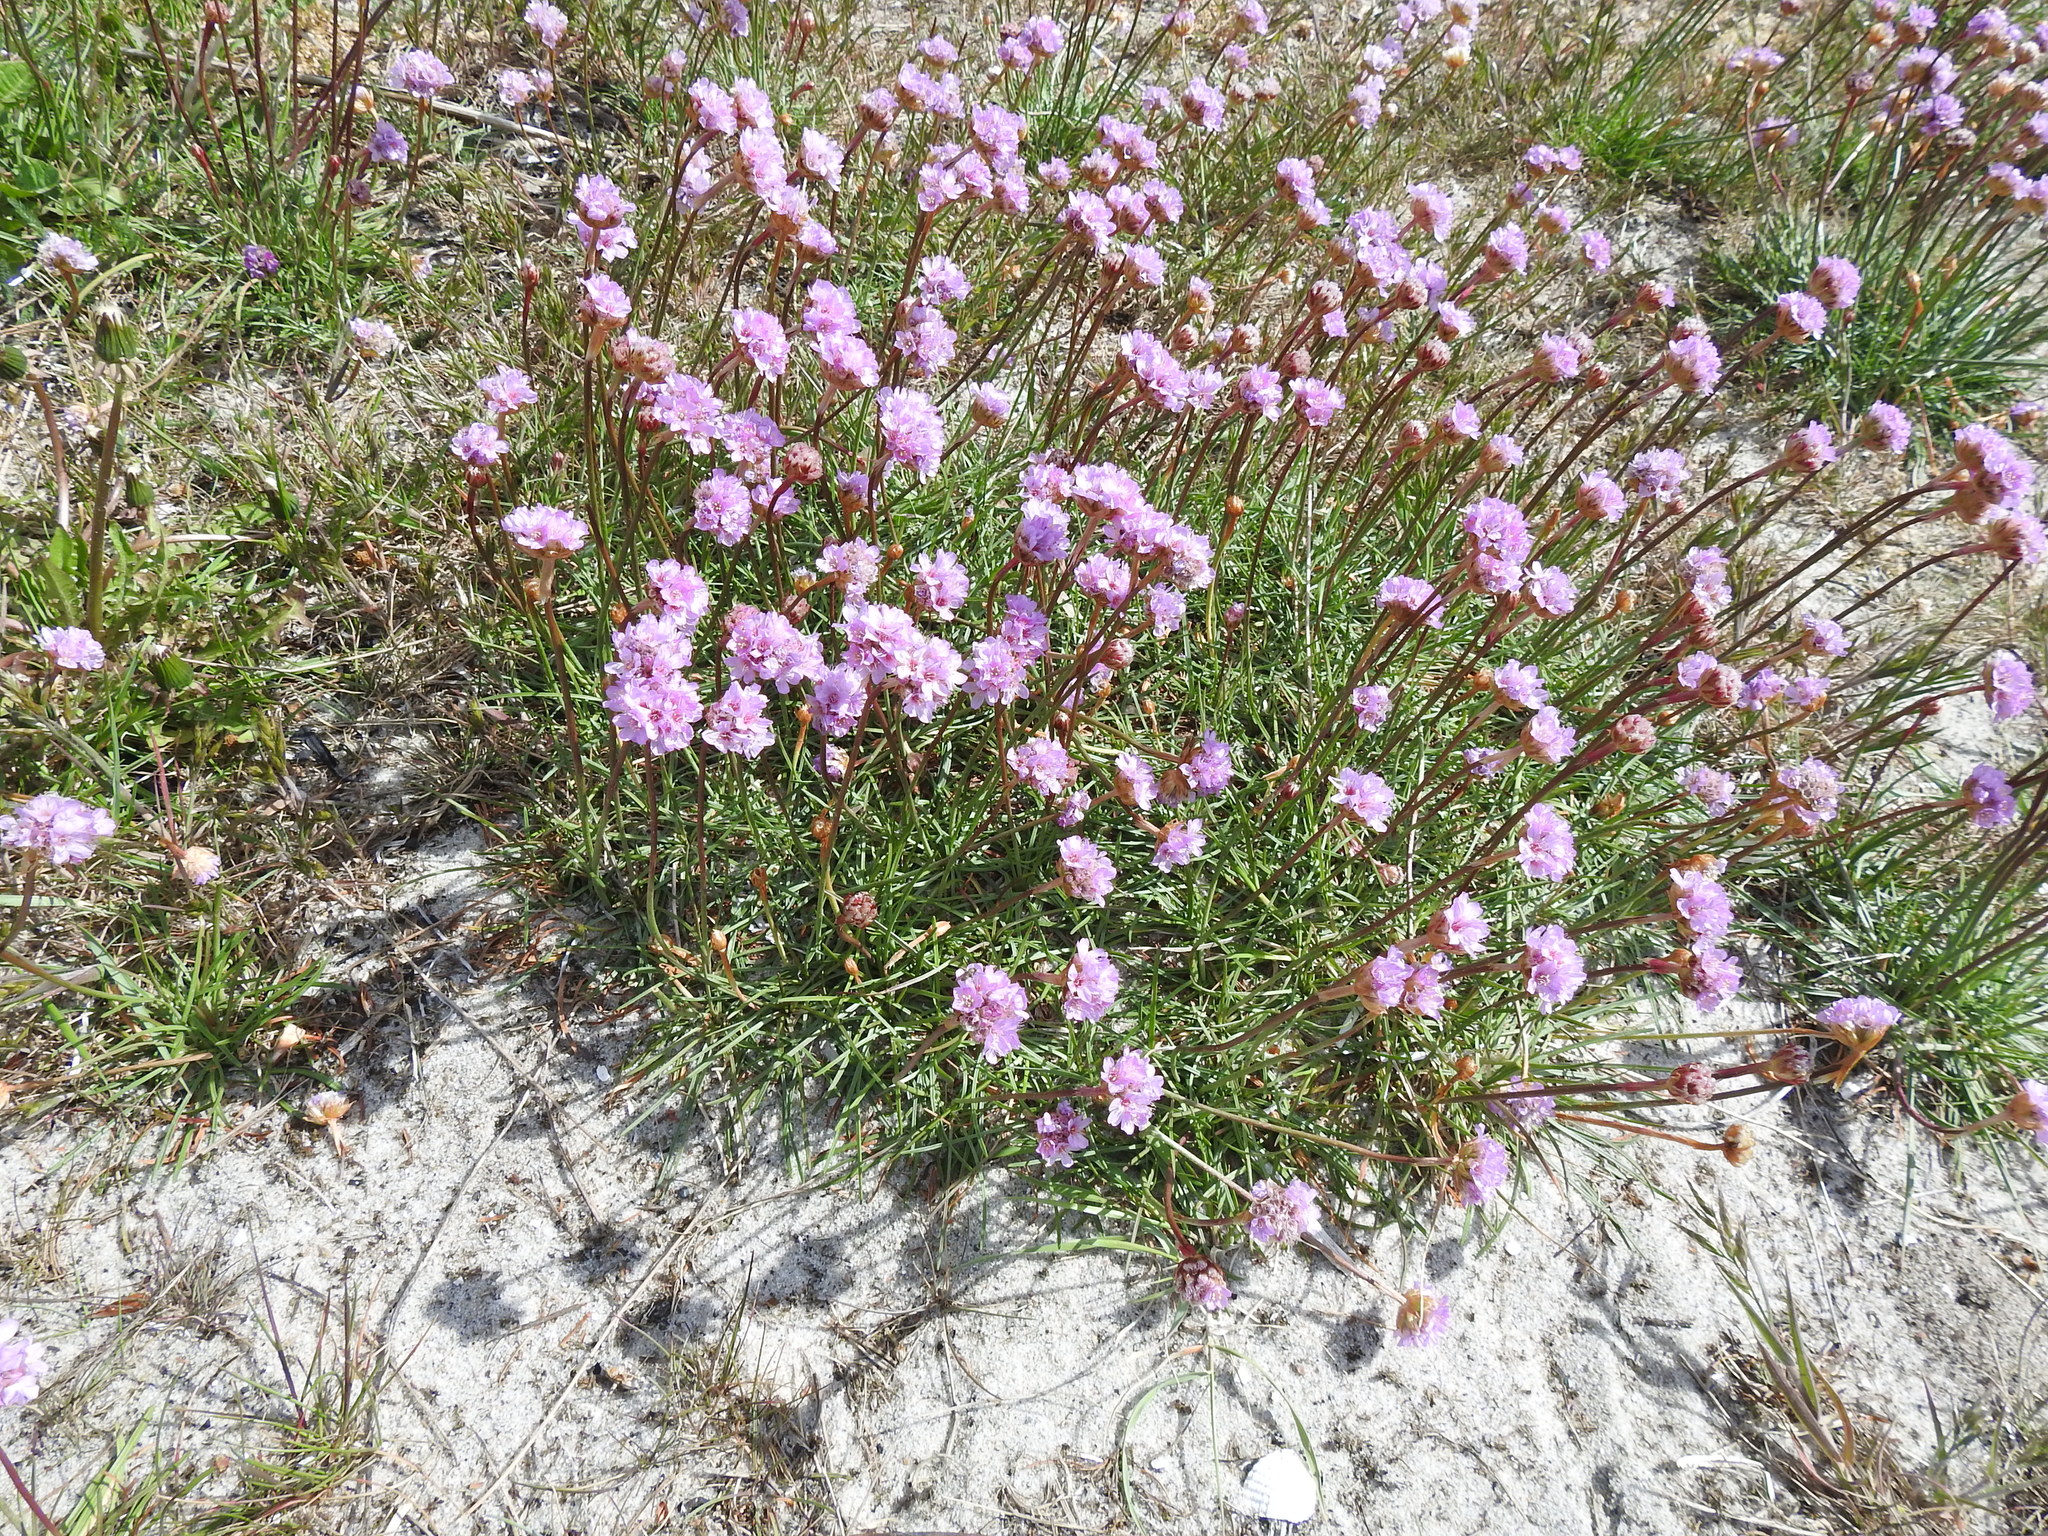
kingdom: Plantae
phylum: Tracheophyta
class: Magnoliopsida
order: Caryophyllales
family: Plumbaginaceae
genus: Armeria
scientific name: Armeria maritima
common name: Thrift
